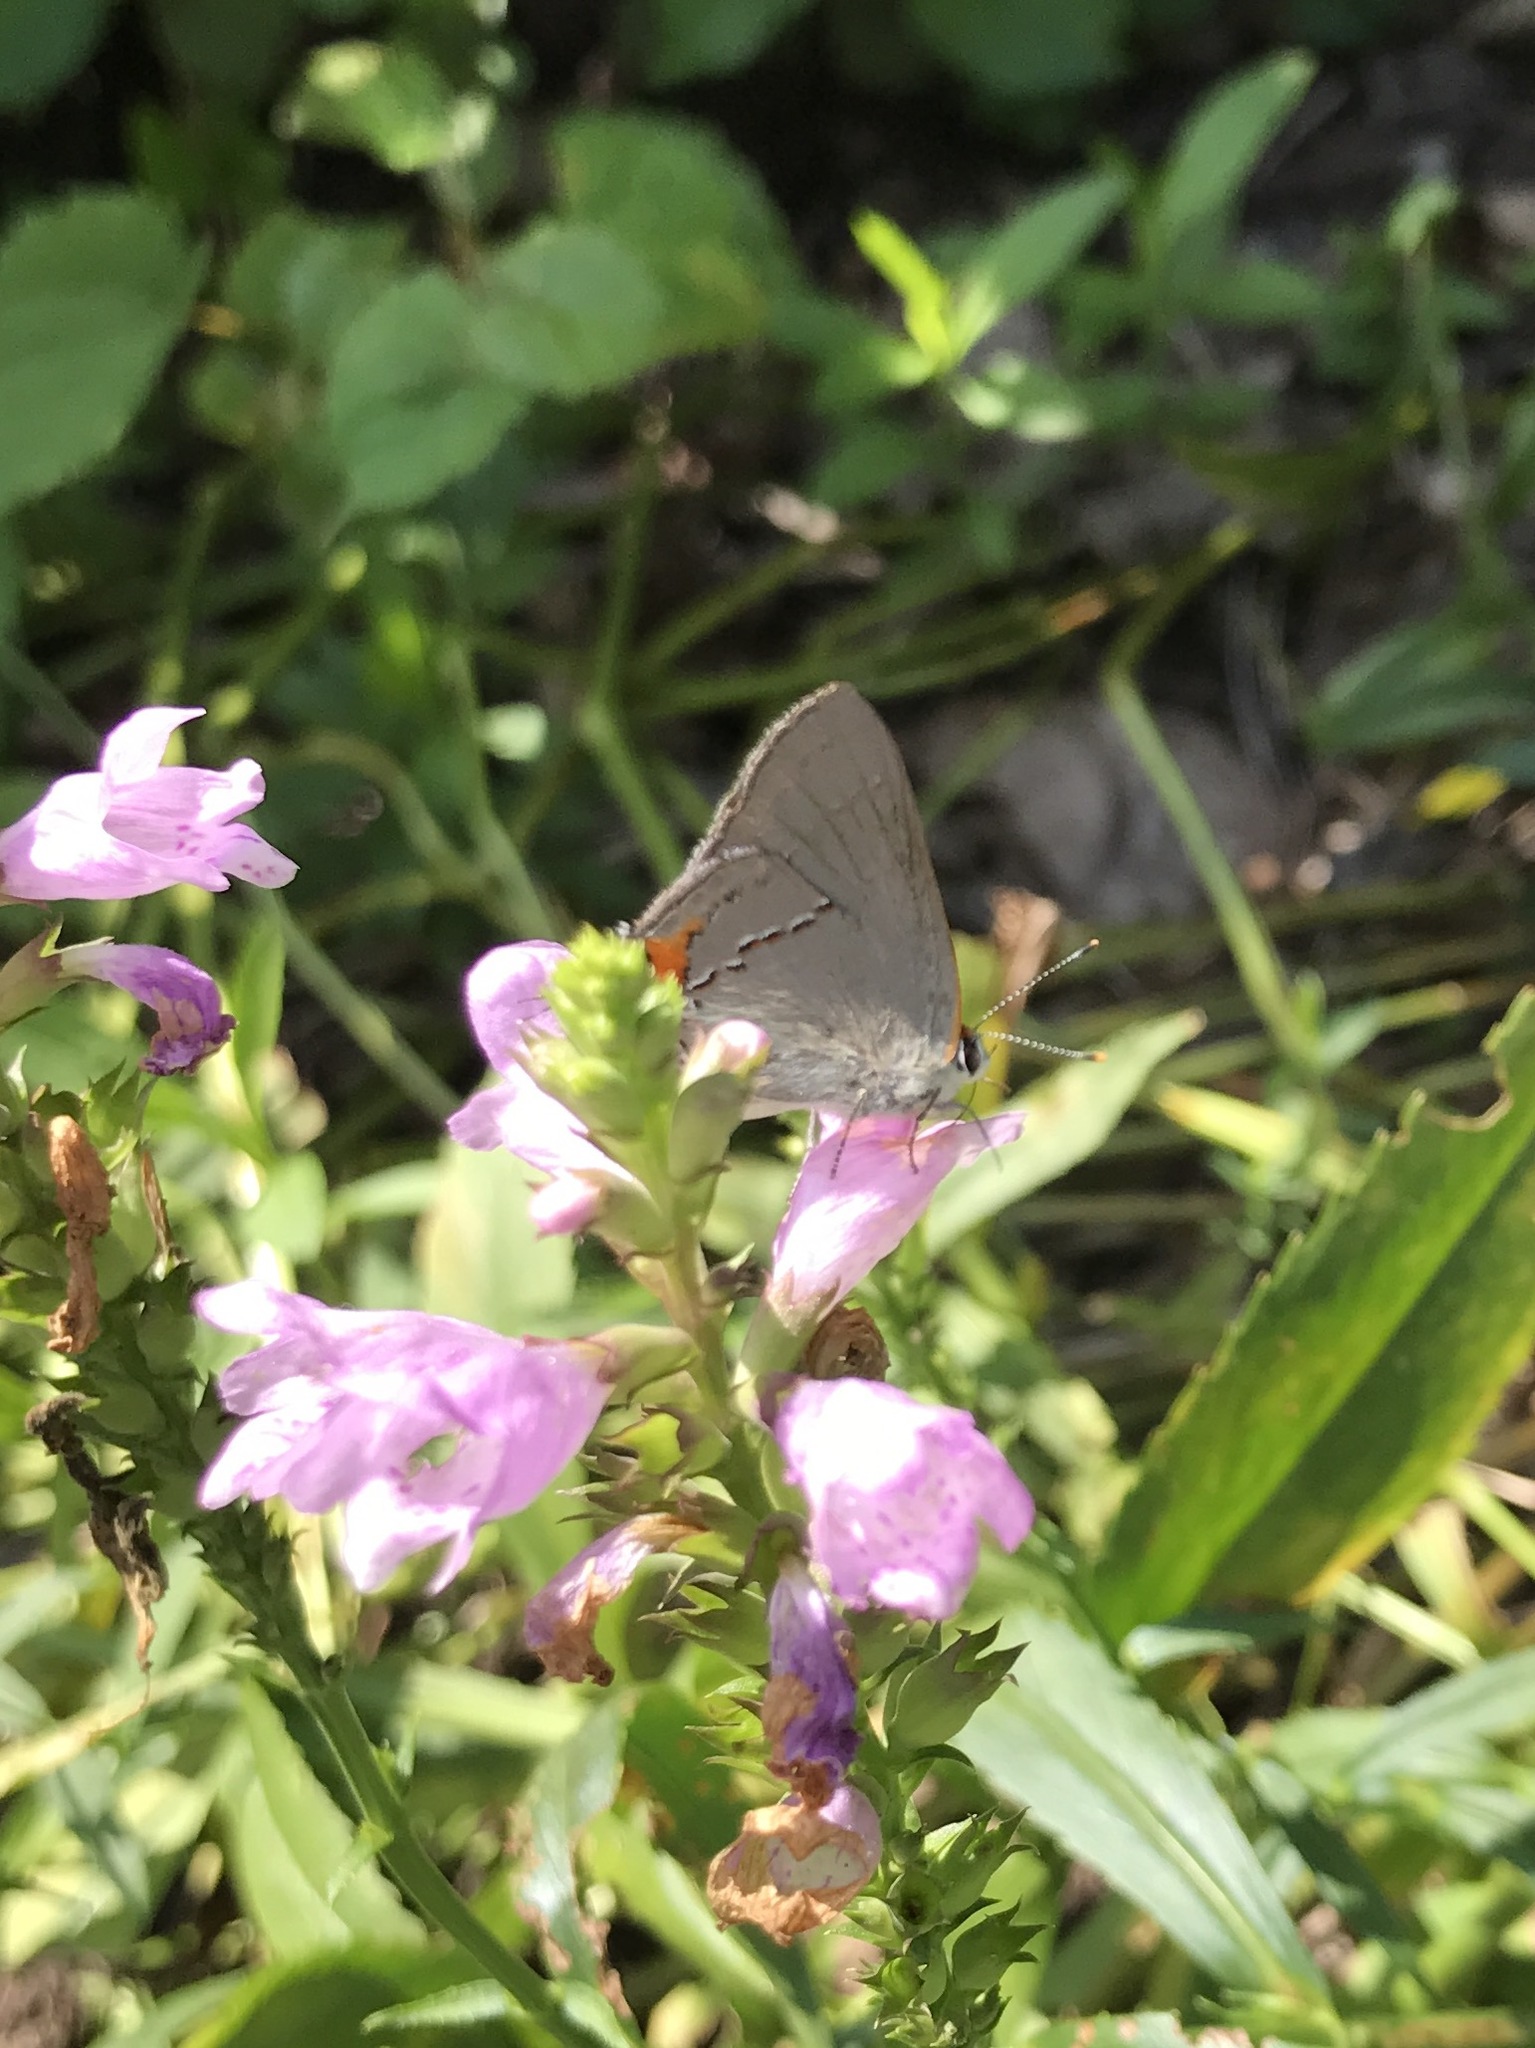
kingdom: Animalia
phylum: Arthropoda
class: Insecta
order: Lepidoptera
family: Lycaenidae
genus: Strymon
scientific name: Strymon melinus
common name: Gray hairstreak
